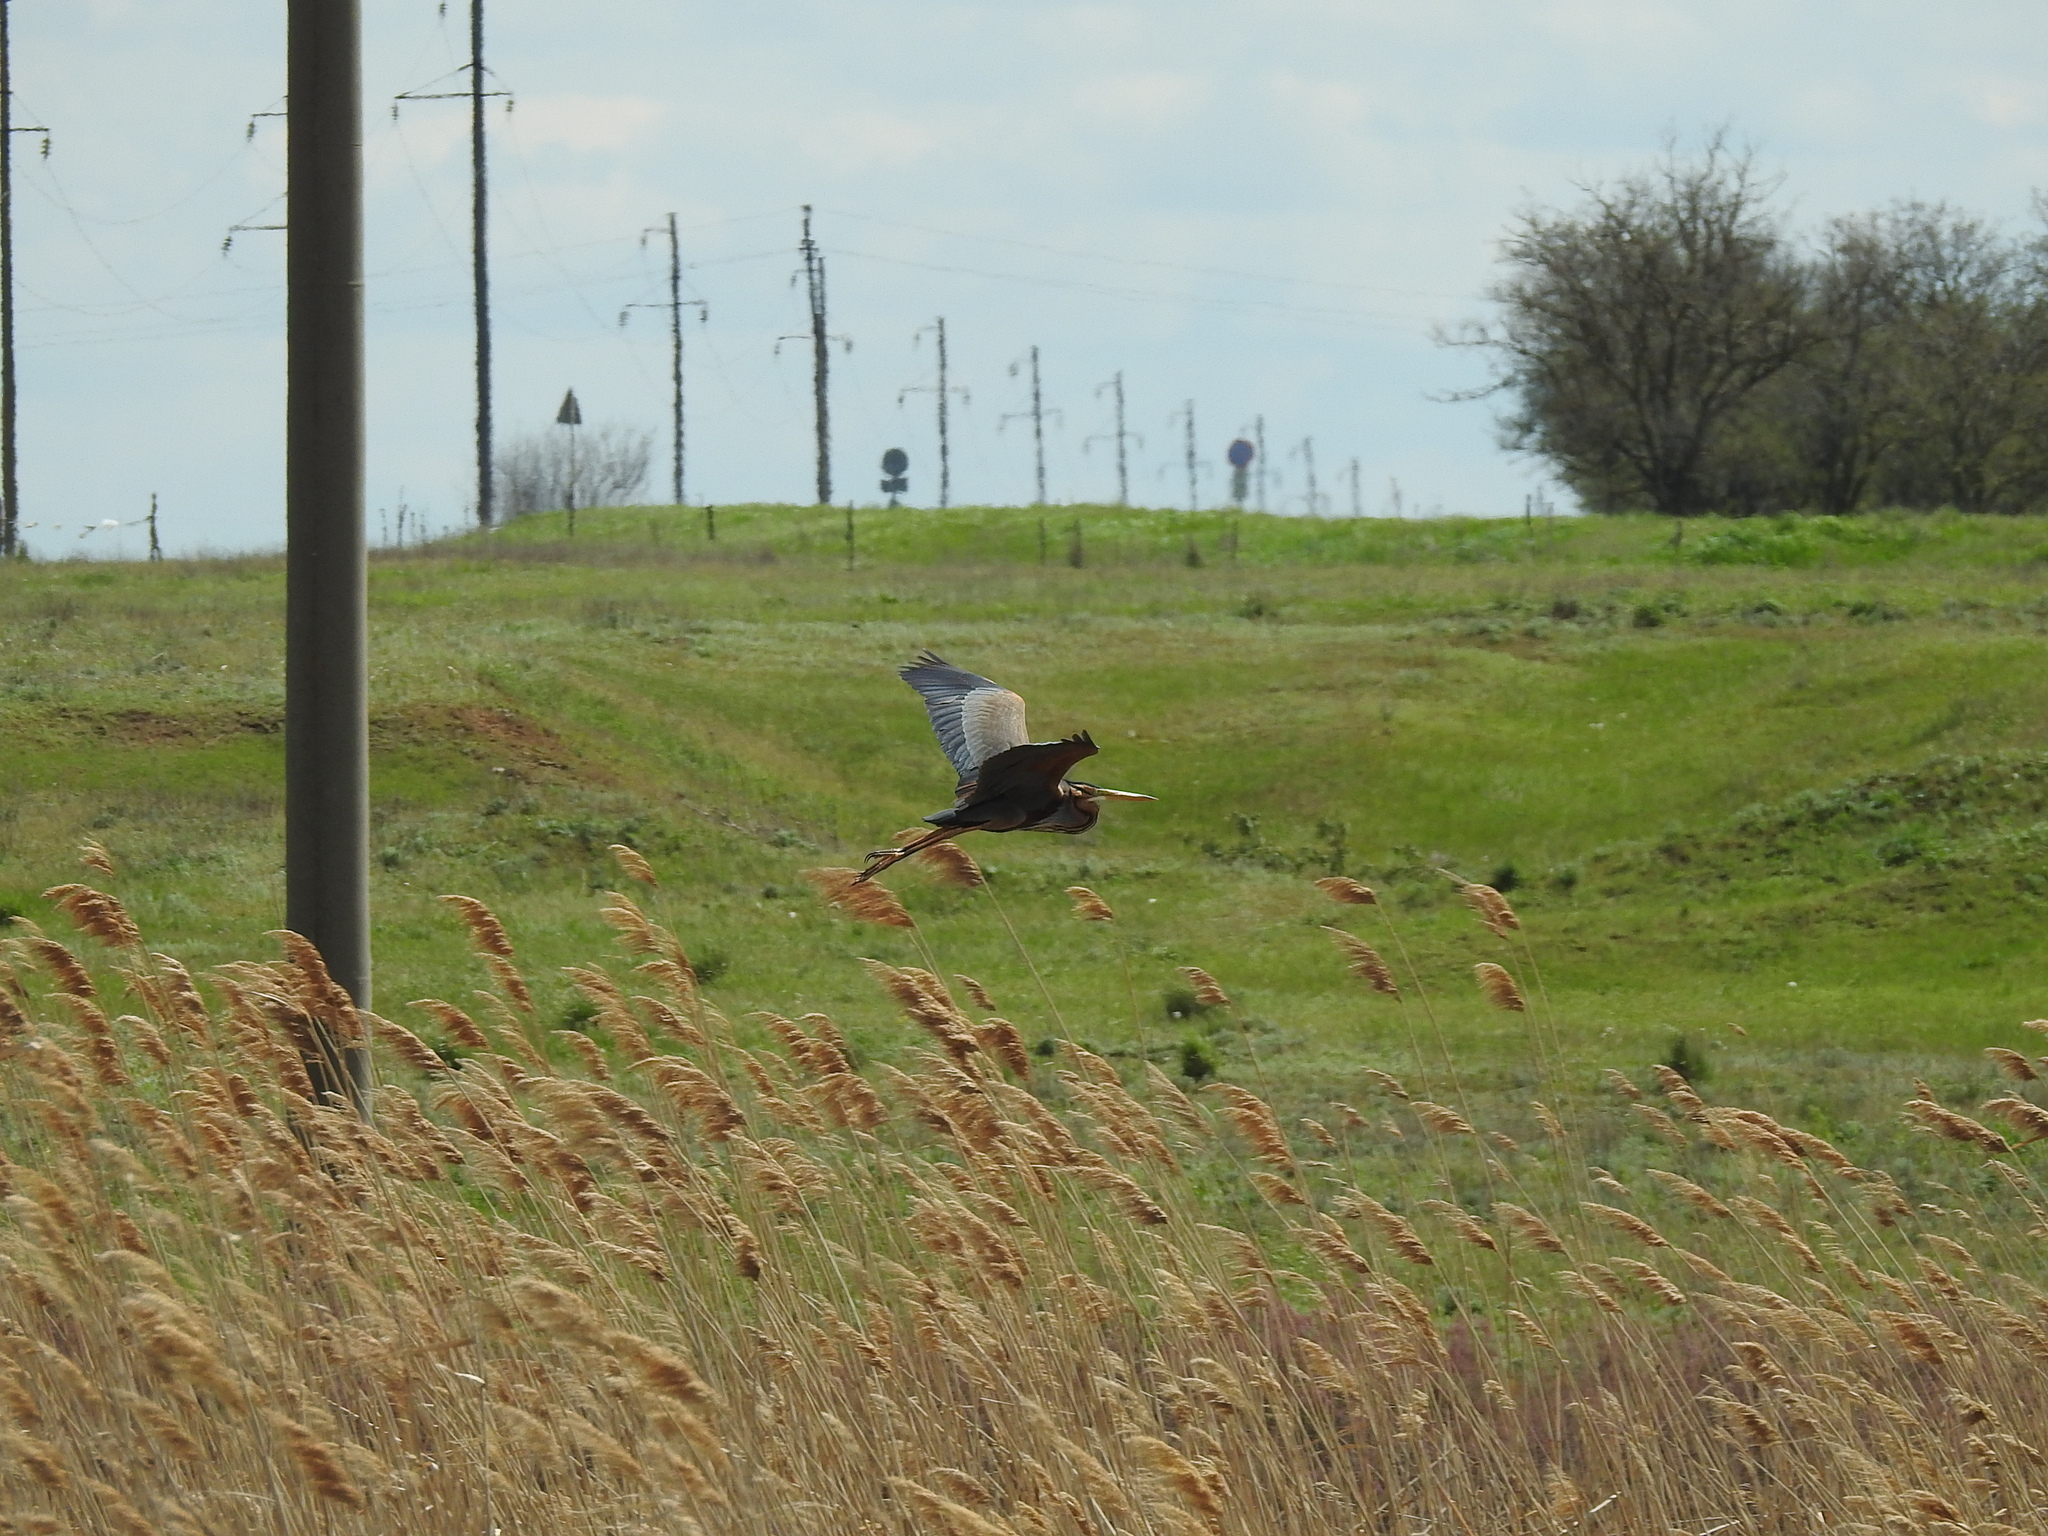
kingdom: Animalia
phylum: Chordata
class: Aves
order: Pelecaniformes
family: Ardeidae
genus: Ardea
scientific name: Ardea purpurea
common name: Purple heron
